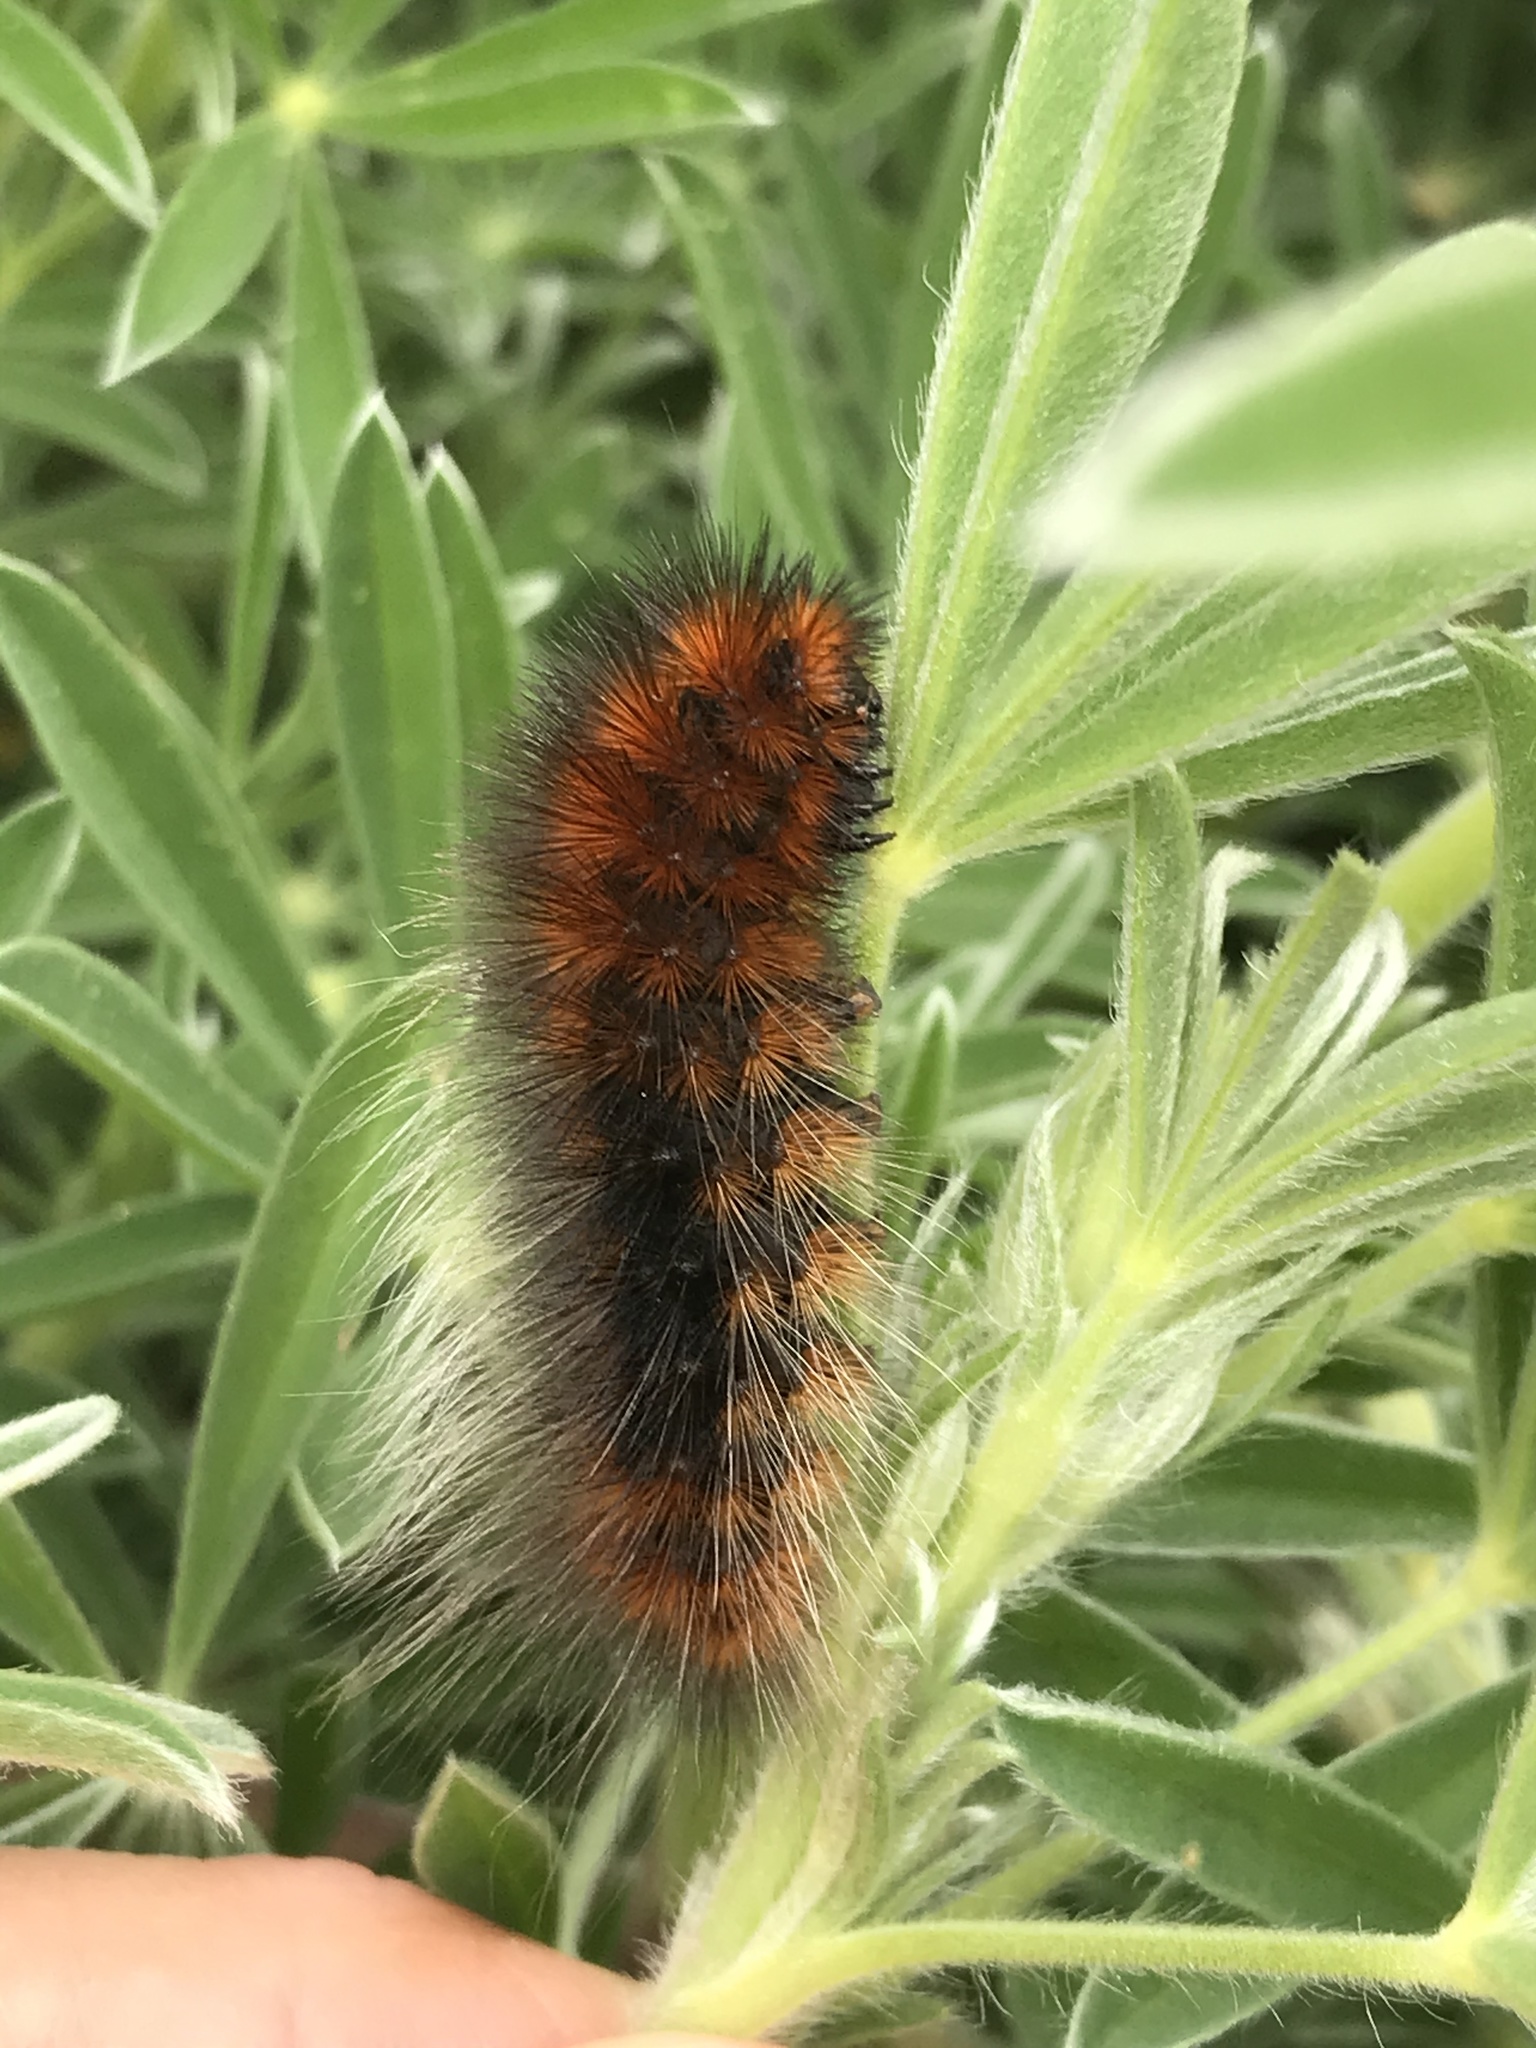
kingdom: Animalia
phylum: Arthropoda
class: Insecta
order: Lepidoptera
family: Erebidae
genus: Arctia
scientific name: Arctia tigrina
